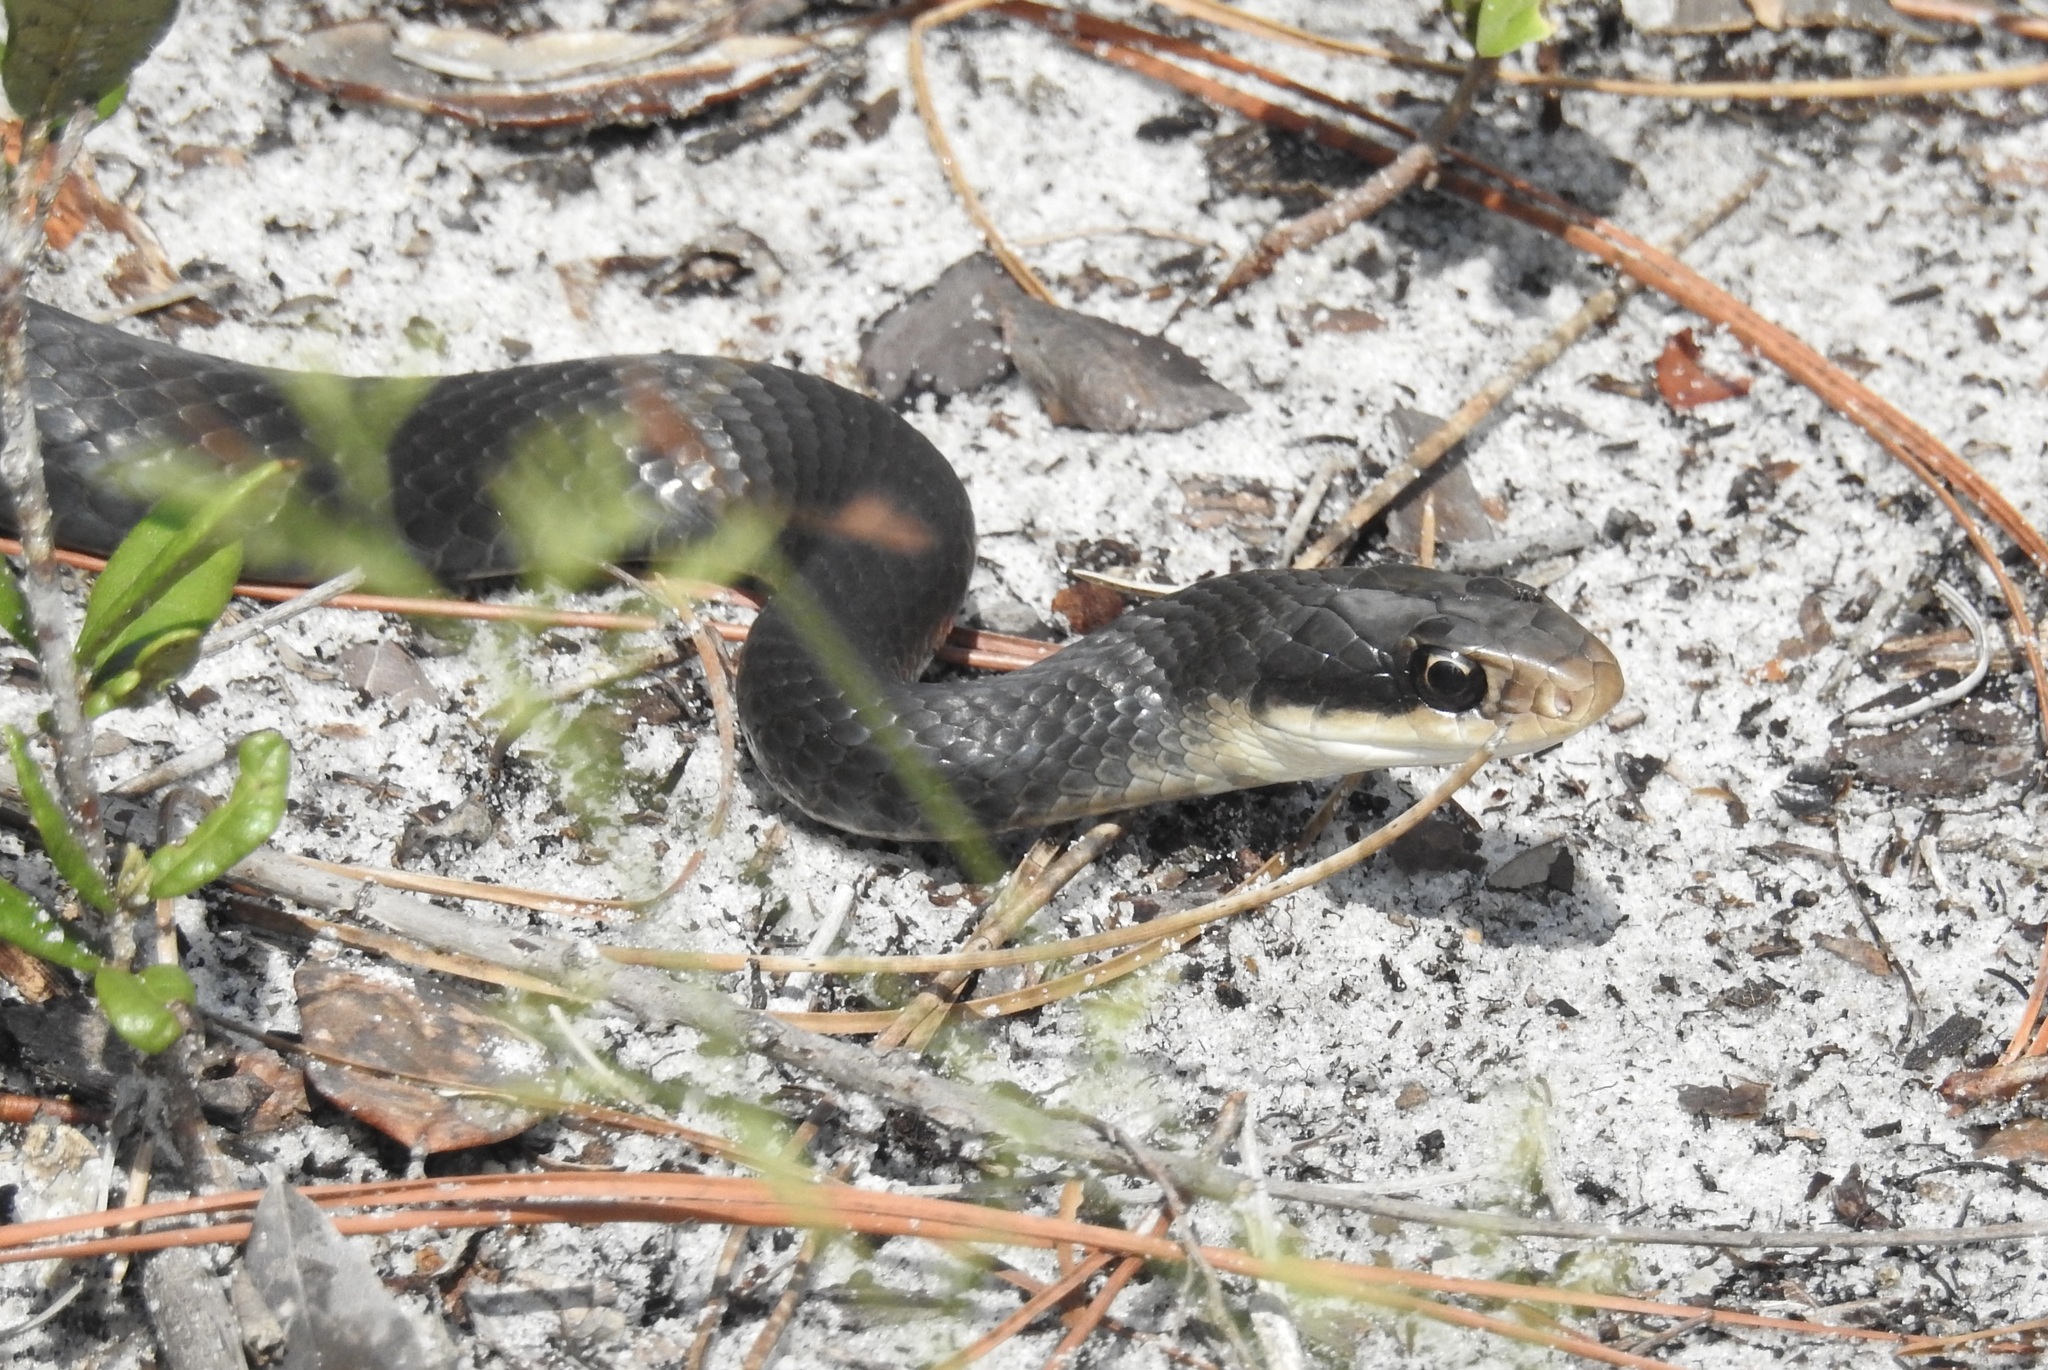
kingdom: Animalia
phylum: Chordata
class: Squamata
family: Colubridae
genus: Coluber
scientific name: Coluber constrictor
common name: Eastern racer
